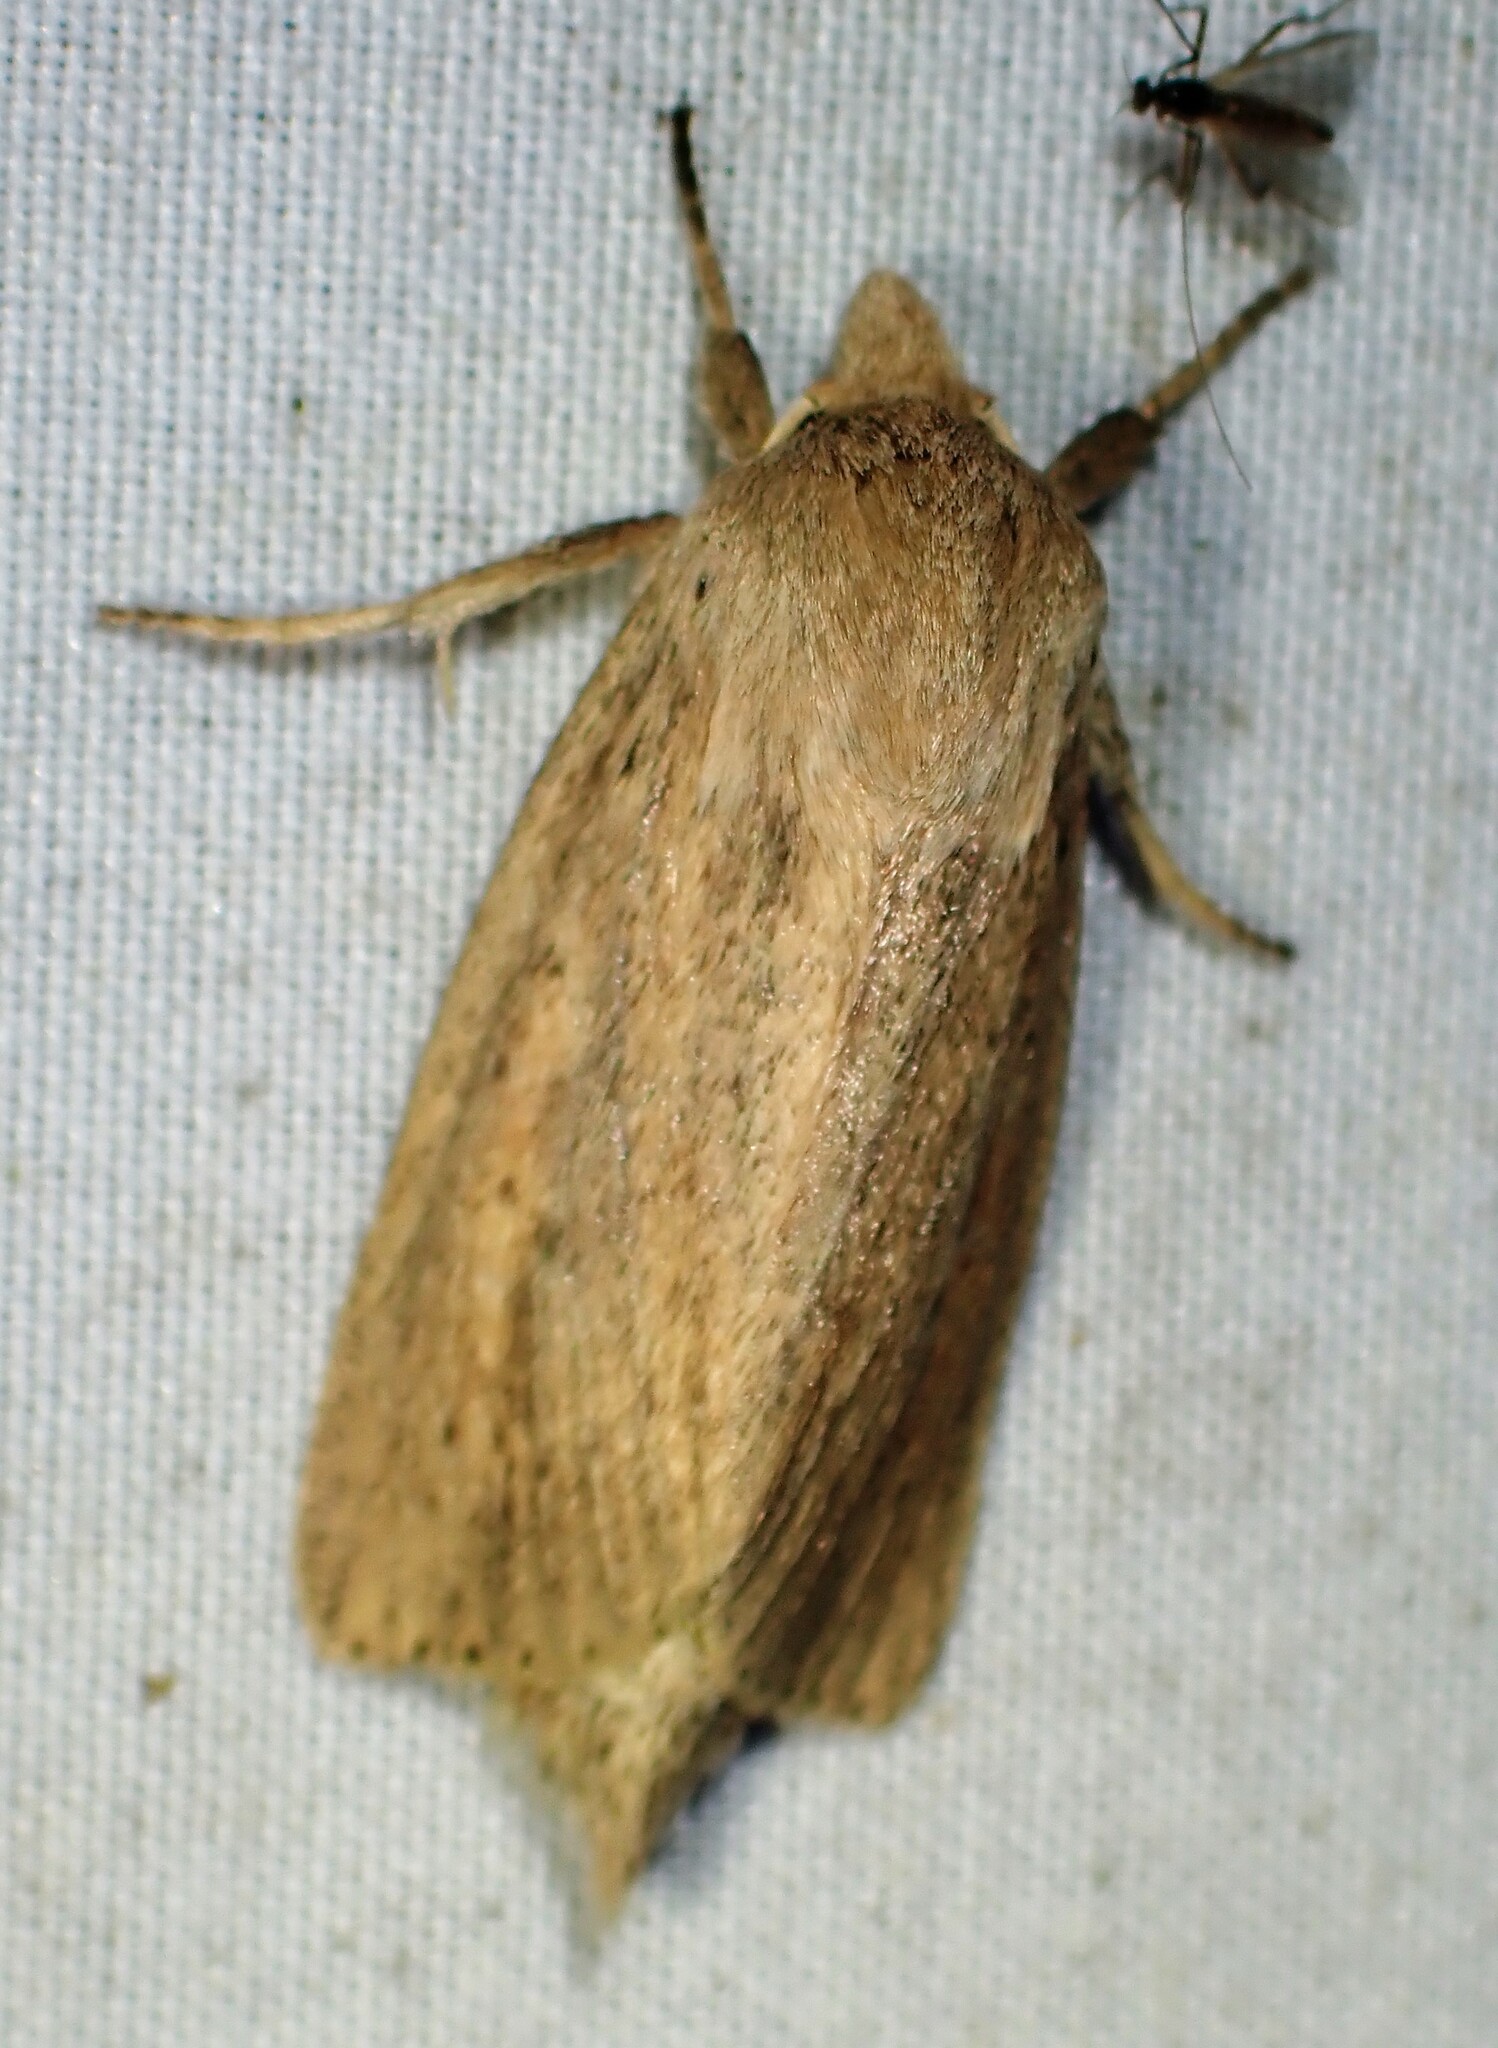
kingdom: Animalia
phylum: Arthropoda
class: Insecta
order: Lepidoptera
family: Noctuidae
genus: Globia
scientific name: Globia oblonga
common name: Oblong sedge borer moth
